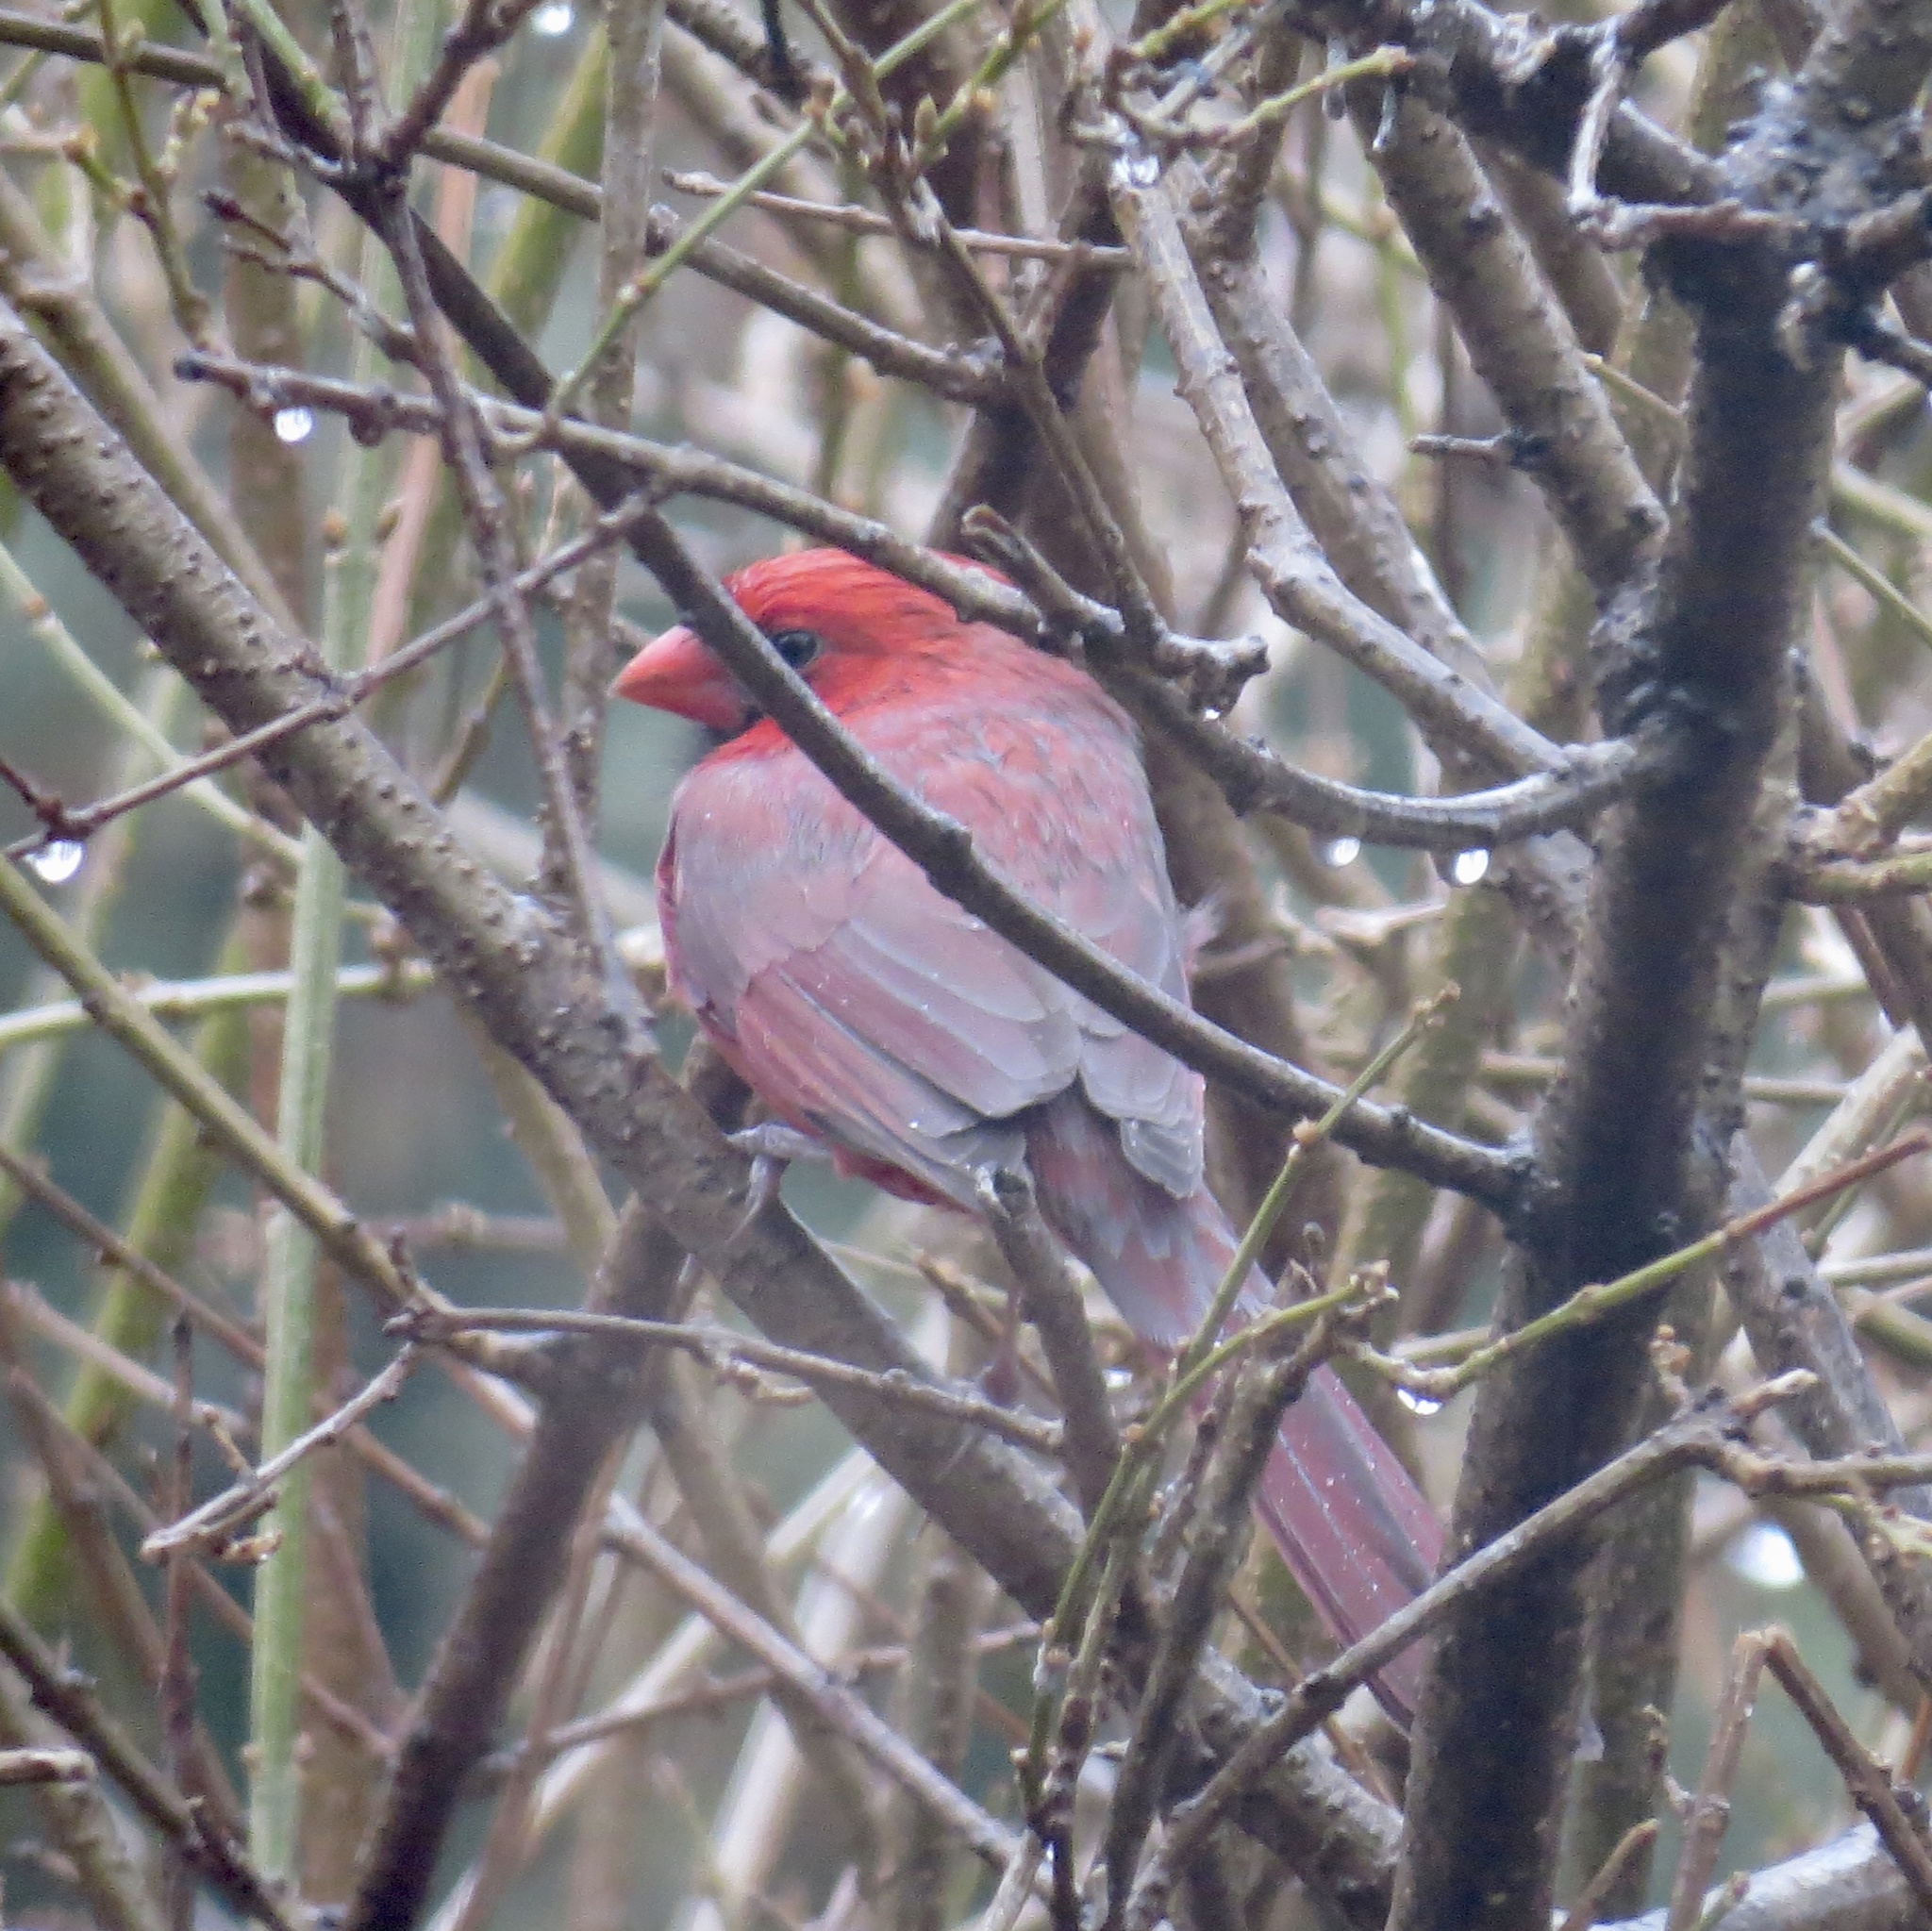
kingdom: Animalia
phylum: Chordata
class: Aves
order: Passeriformes
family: Cardinalidae
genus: Cardinalis
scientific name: Cardinalis cardinalis
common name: Northern cardinal
